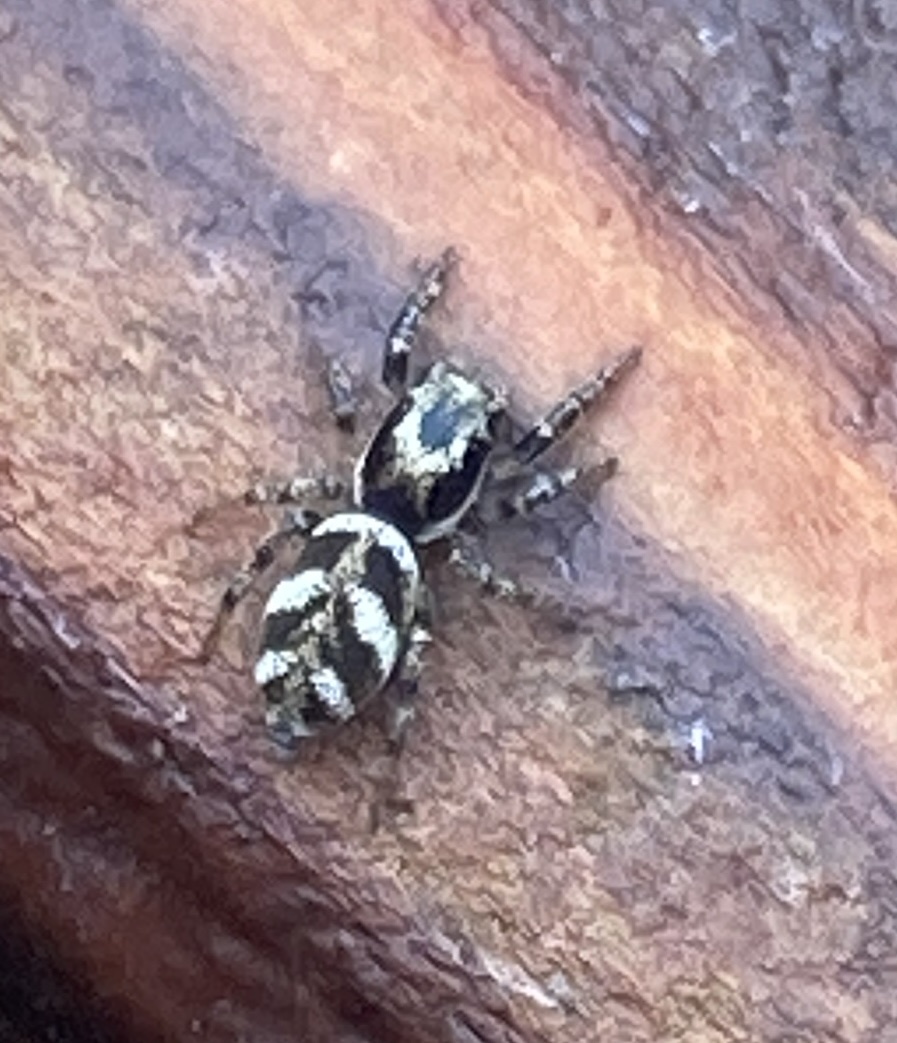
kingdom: Animalia
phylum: Arthropoda
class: Arachnida
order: Araneae
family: Salticidae
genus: Salticus
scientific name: Salticus scenicus
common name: Zebra jumper
